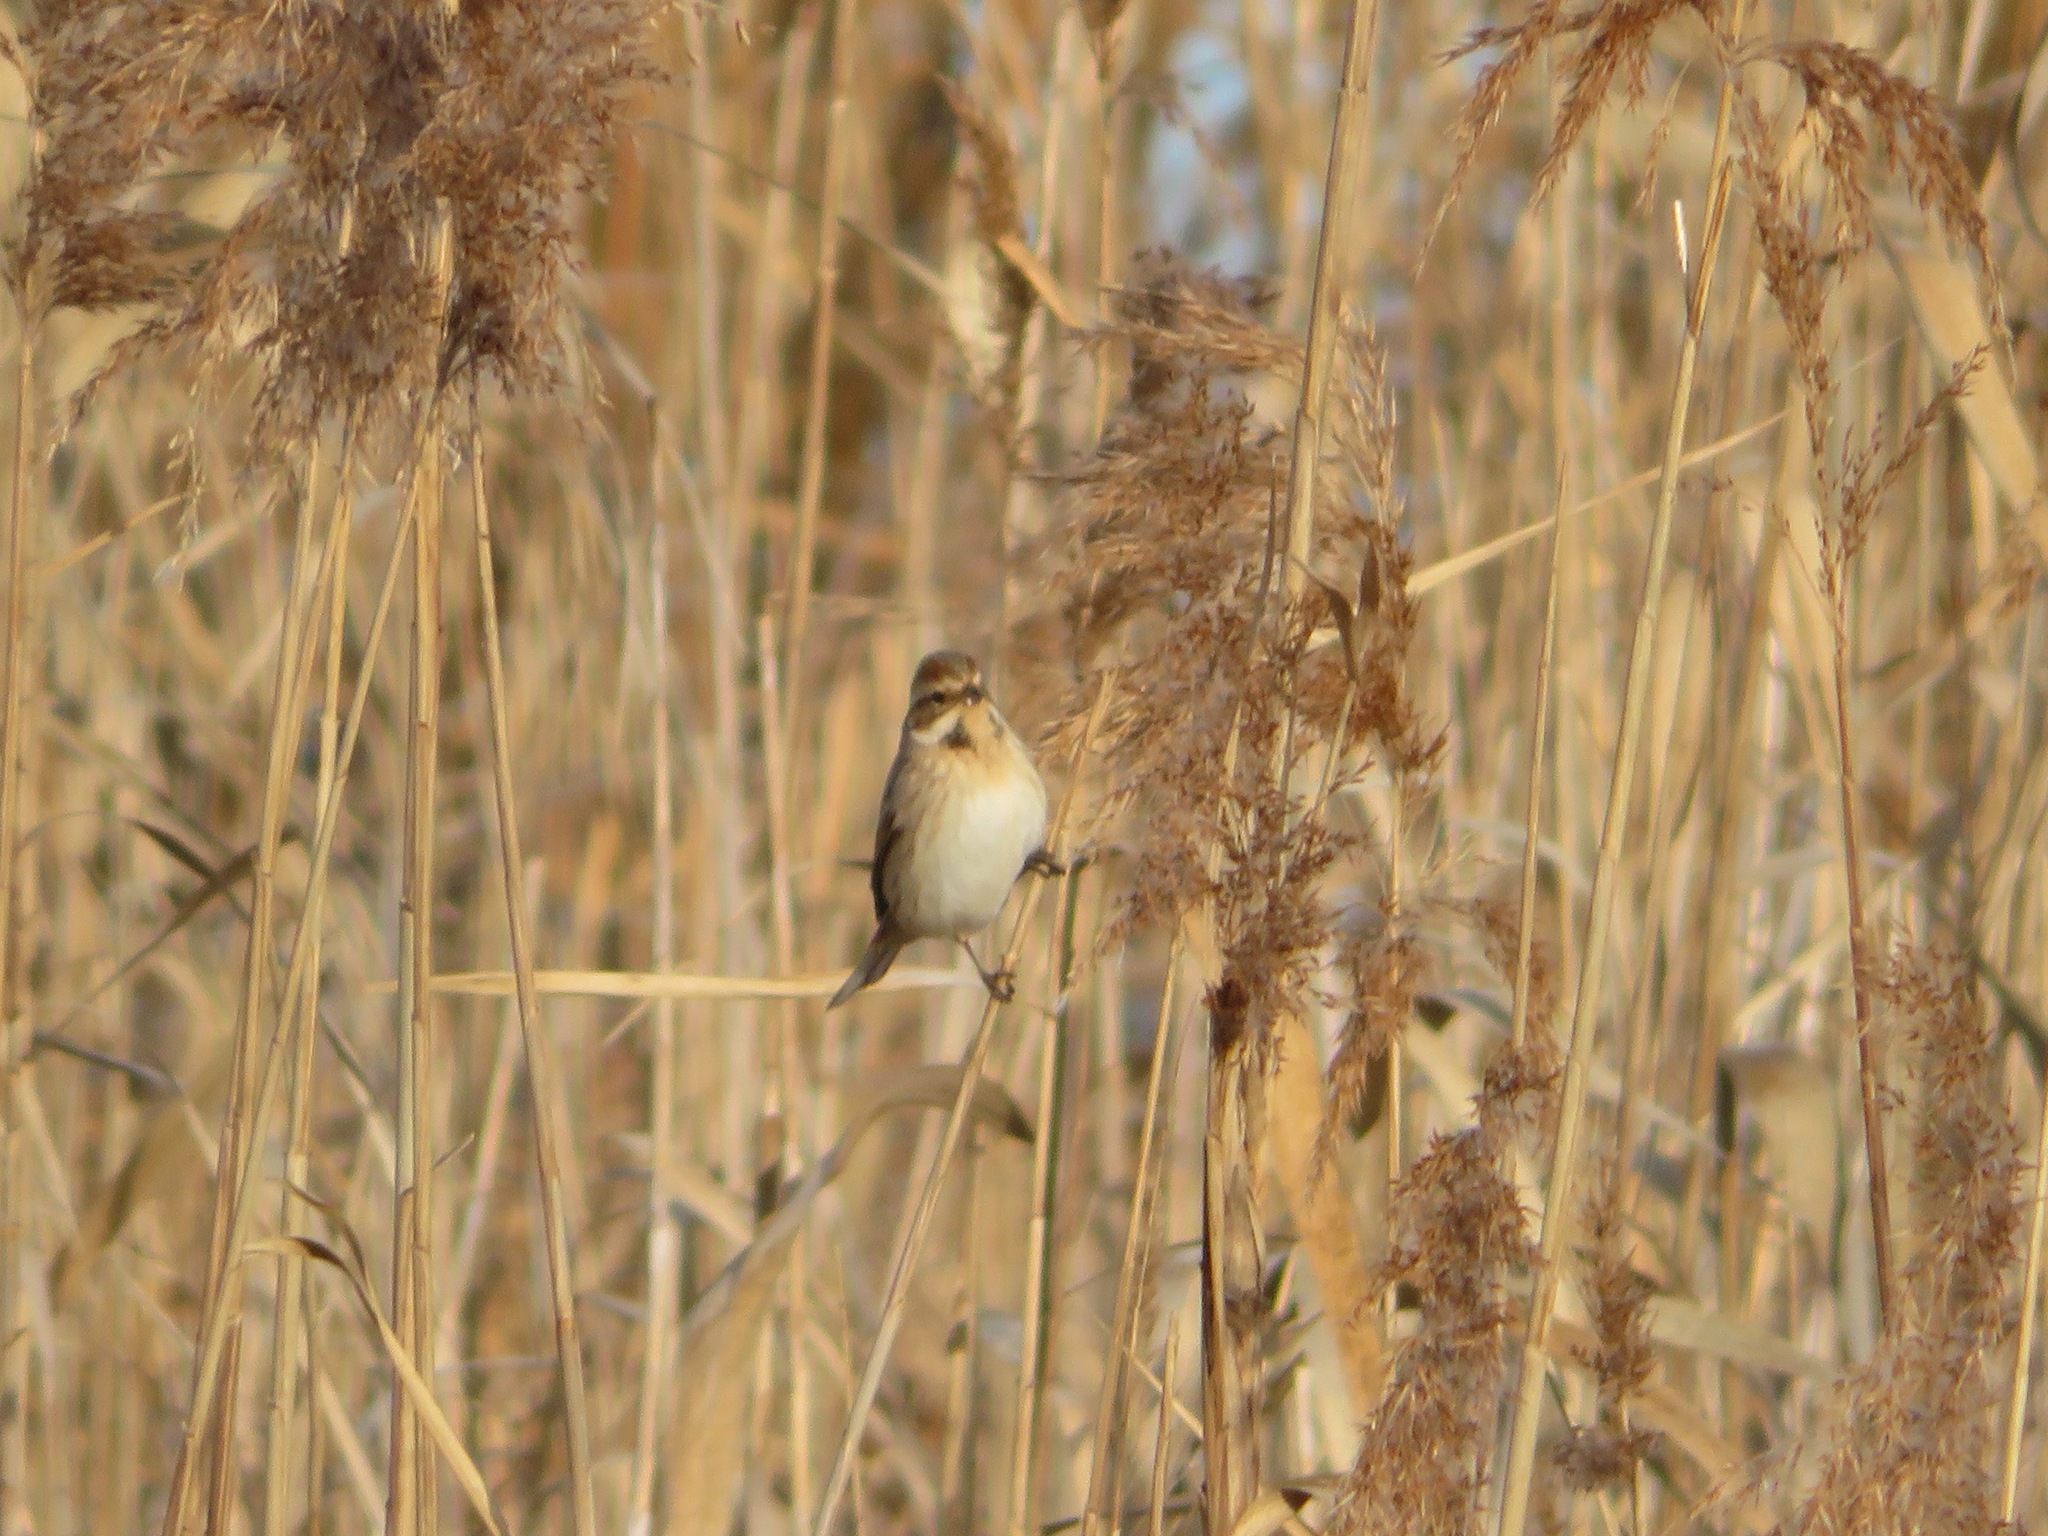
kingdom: Animalia
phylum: Chordata
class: Aves
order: Passeriformes
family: Emberizidae
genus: Emberiza
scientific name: Emberiza schoeniclus
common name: Reed bunting
